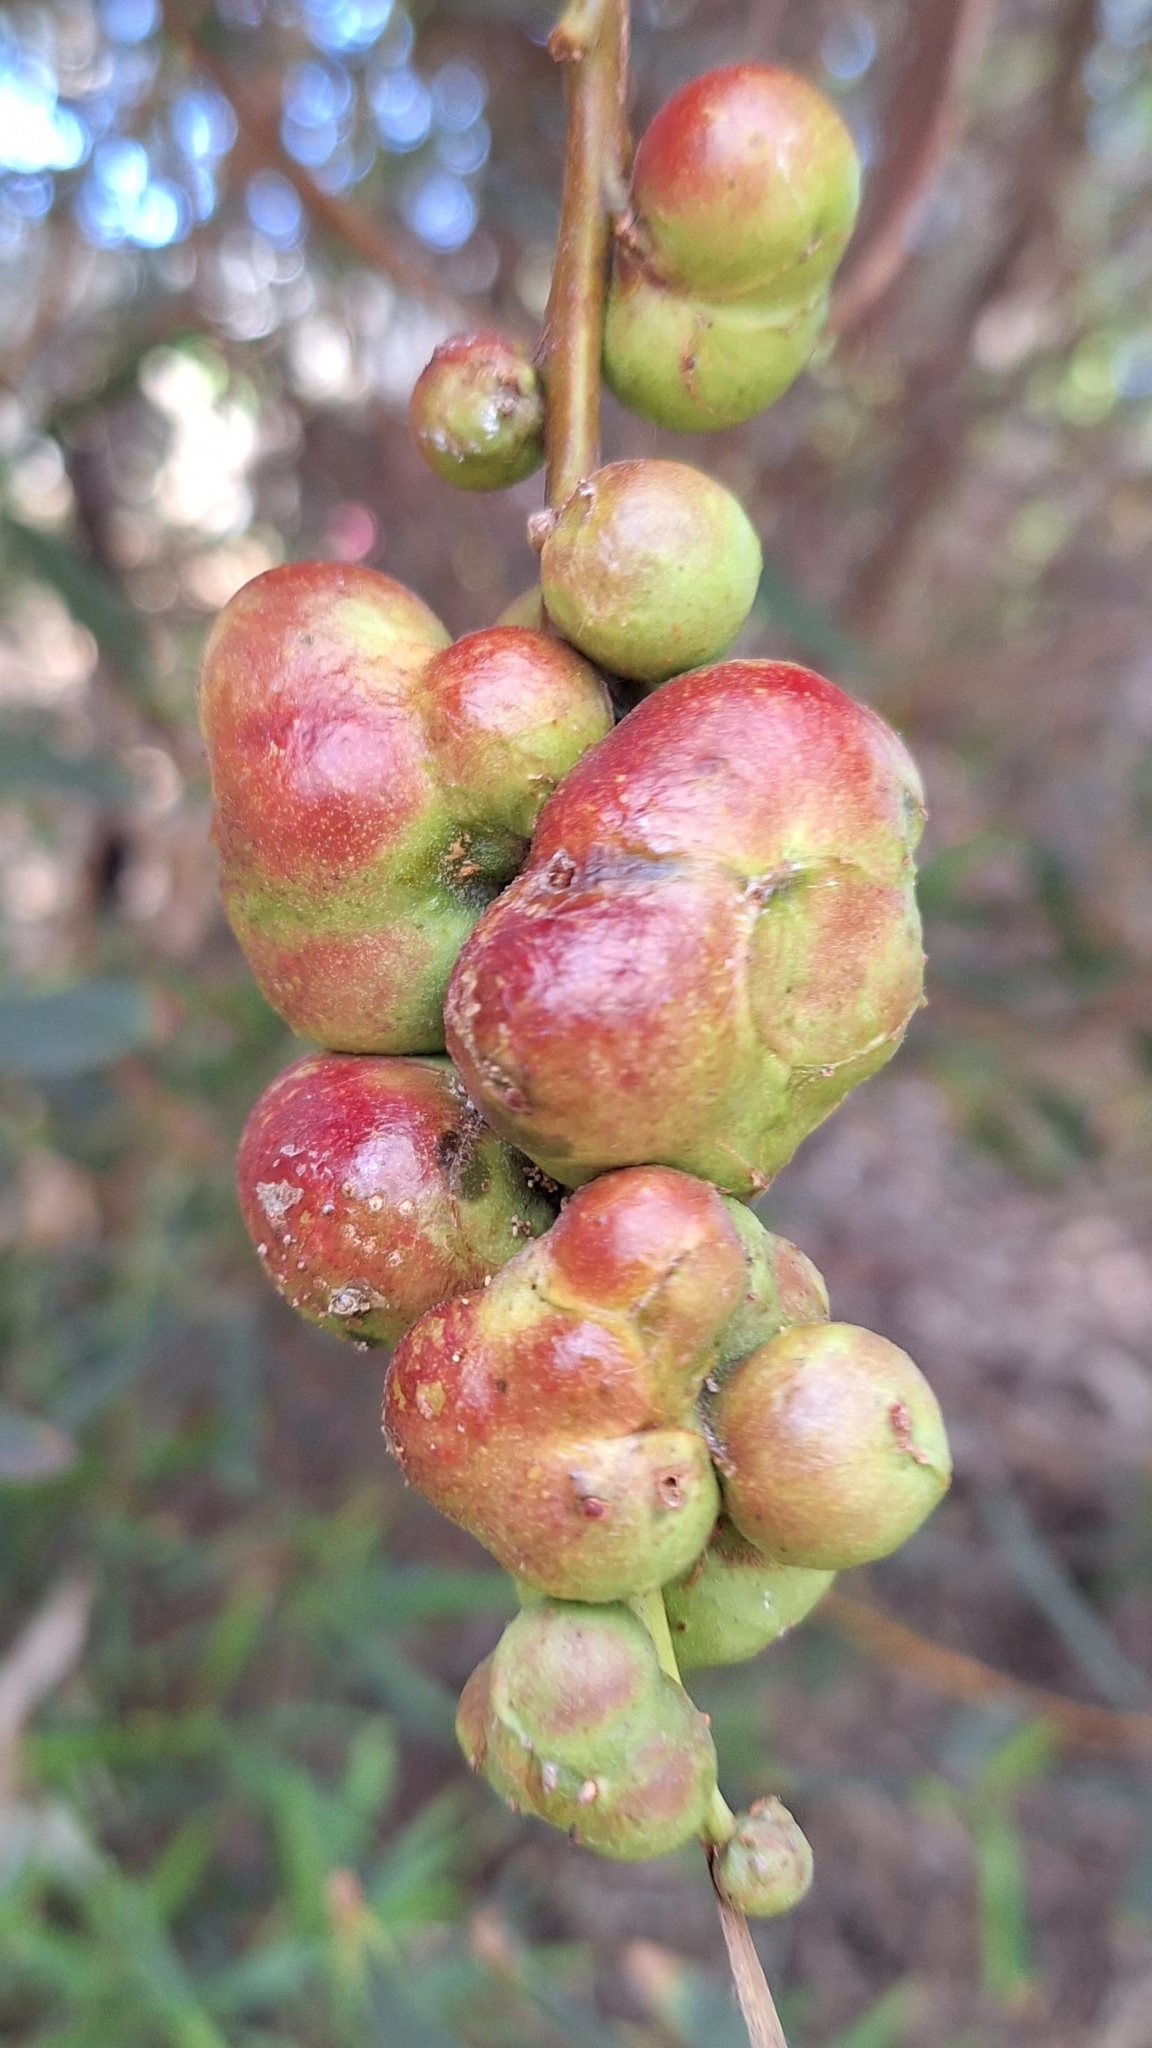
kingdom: Animalia
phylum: Arthropoda
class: Insecta
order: Hymenoptera
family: Pteromalidae
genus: Trichilogaster
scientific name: Trichilogaster acaciaelongifoliae
